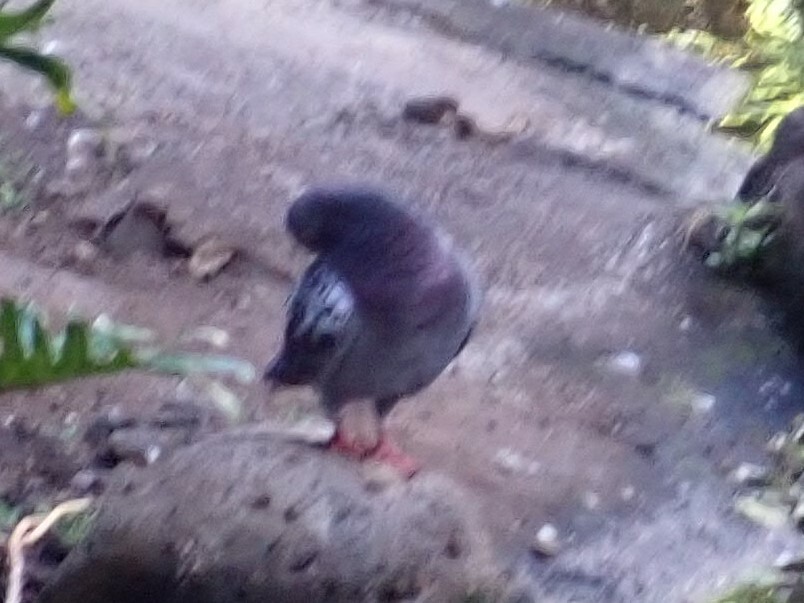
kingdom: Animalia
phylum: Chordata
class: Aves
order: Columbiformes
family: Columbidae
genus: Columba
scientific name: Columba livia
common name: Rock pigeon
